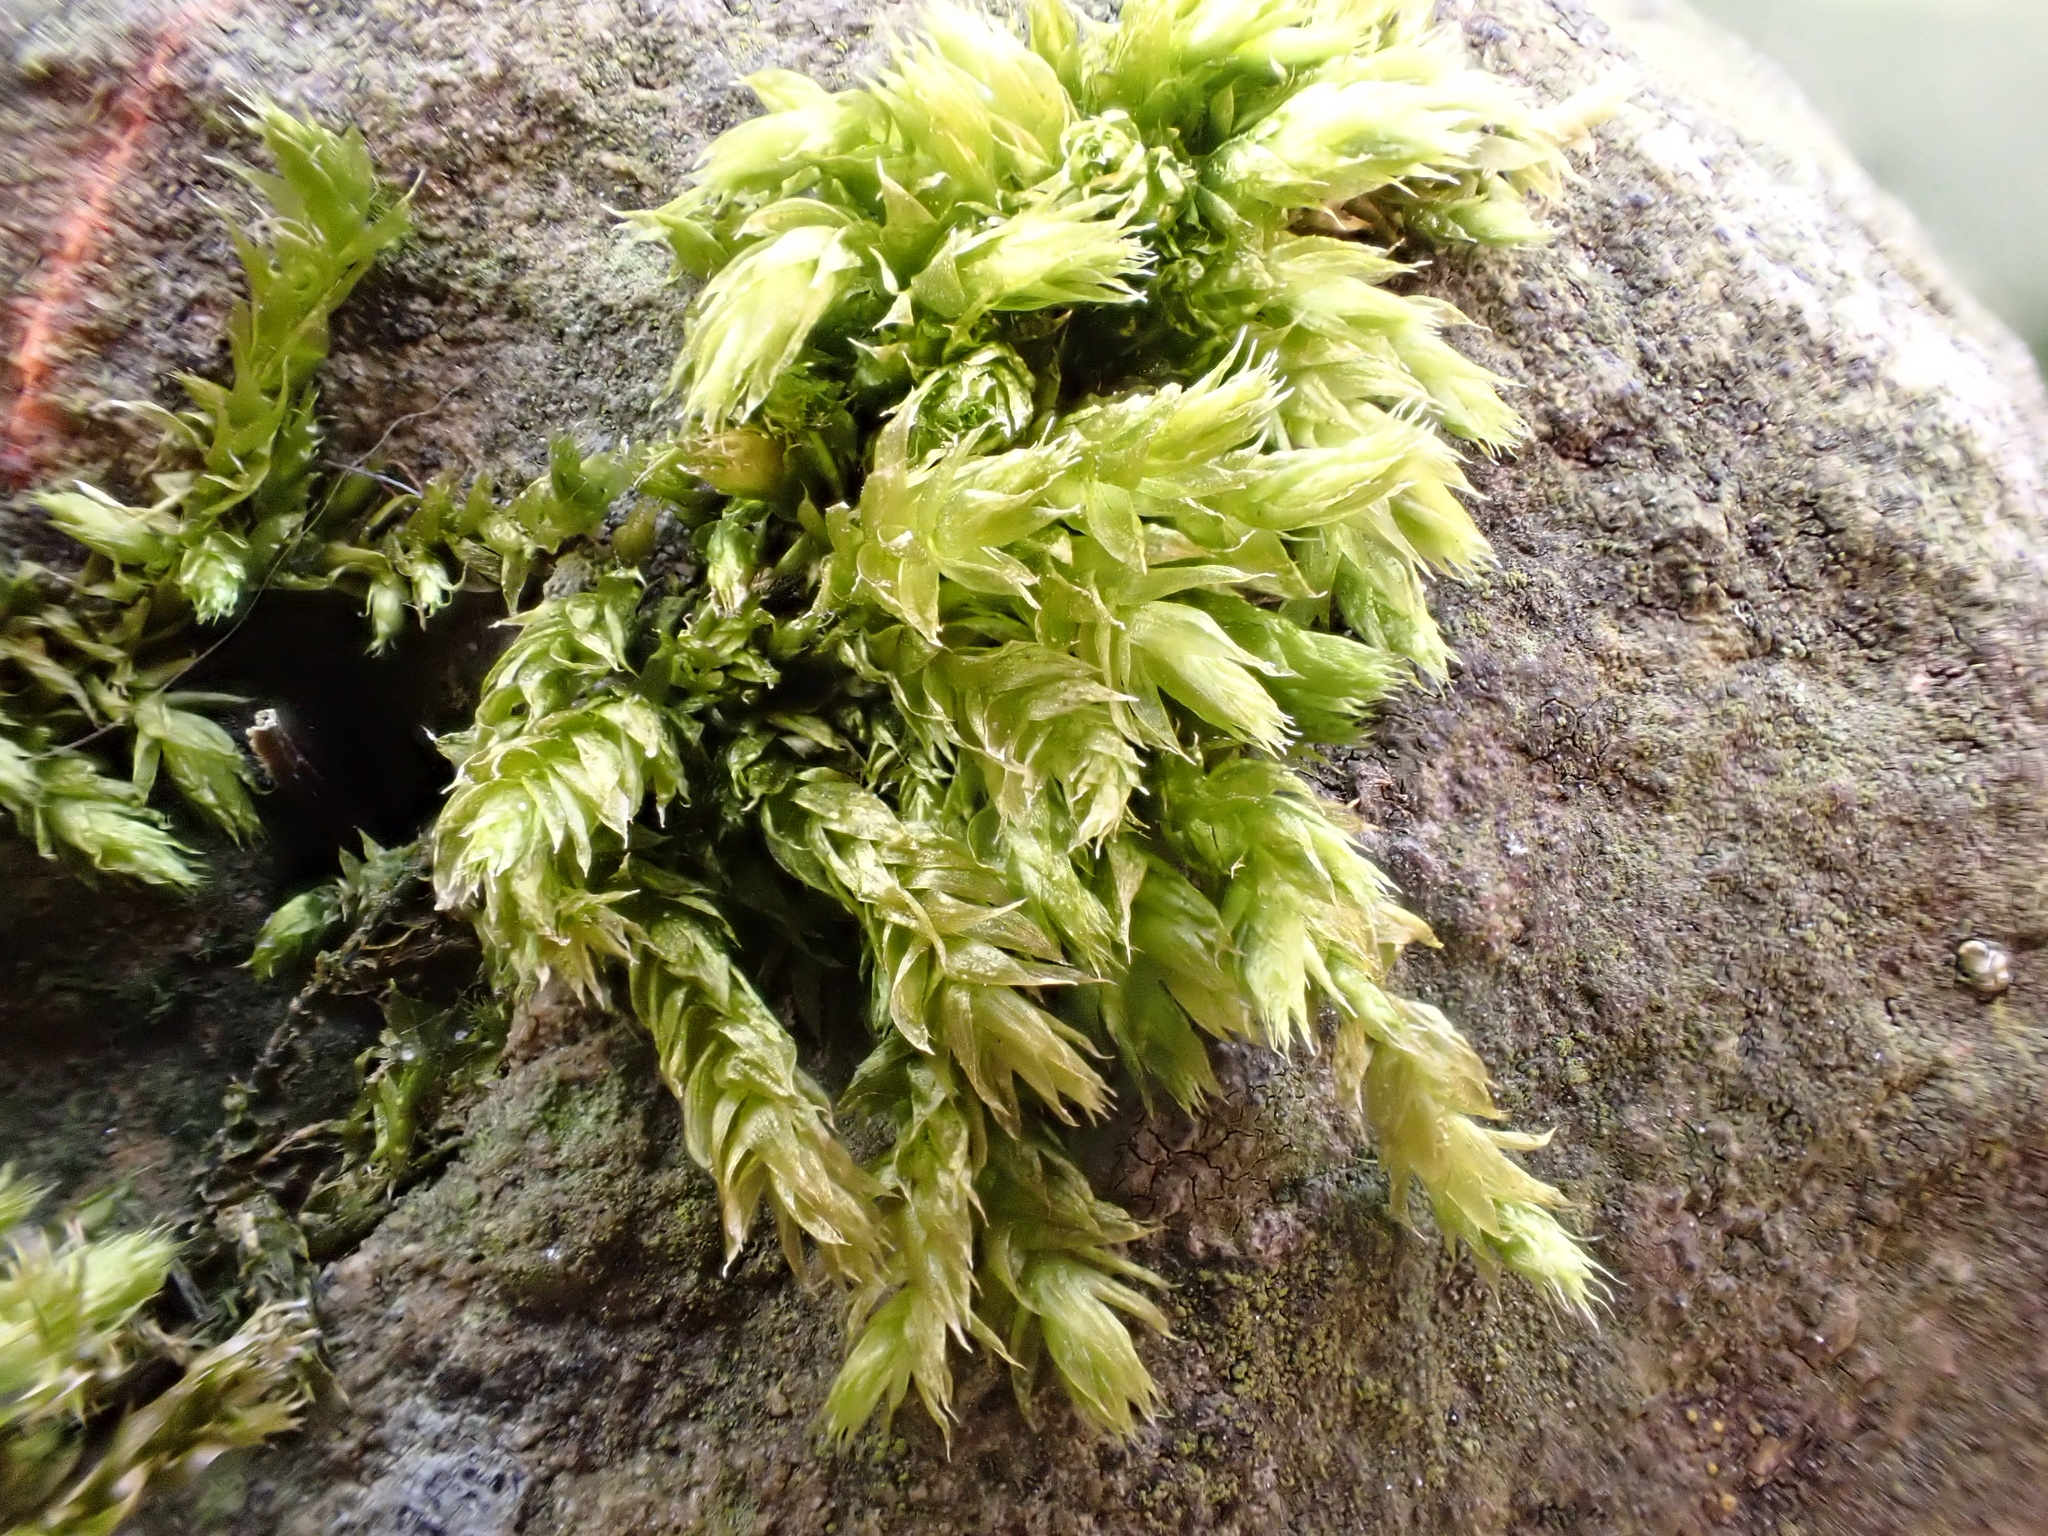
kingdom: Plantae
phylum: Bryophyta
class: Bryopsida
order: Hypnales
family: Brachytheciaceae
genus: Brachythecium
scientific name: Brachythecium rutabulum
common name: Rough-stalked feather-moss
